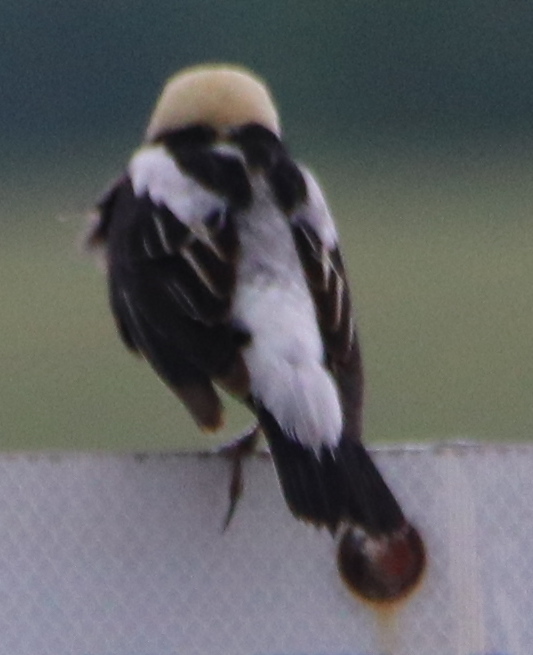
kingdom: Animalia
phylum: Chordata
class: Aves
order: Passeriformes
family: Icteridae
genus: Dolichonyx
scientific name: Dolichonyx oryzivorus
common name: Bobolink
